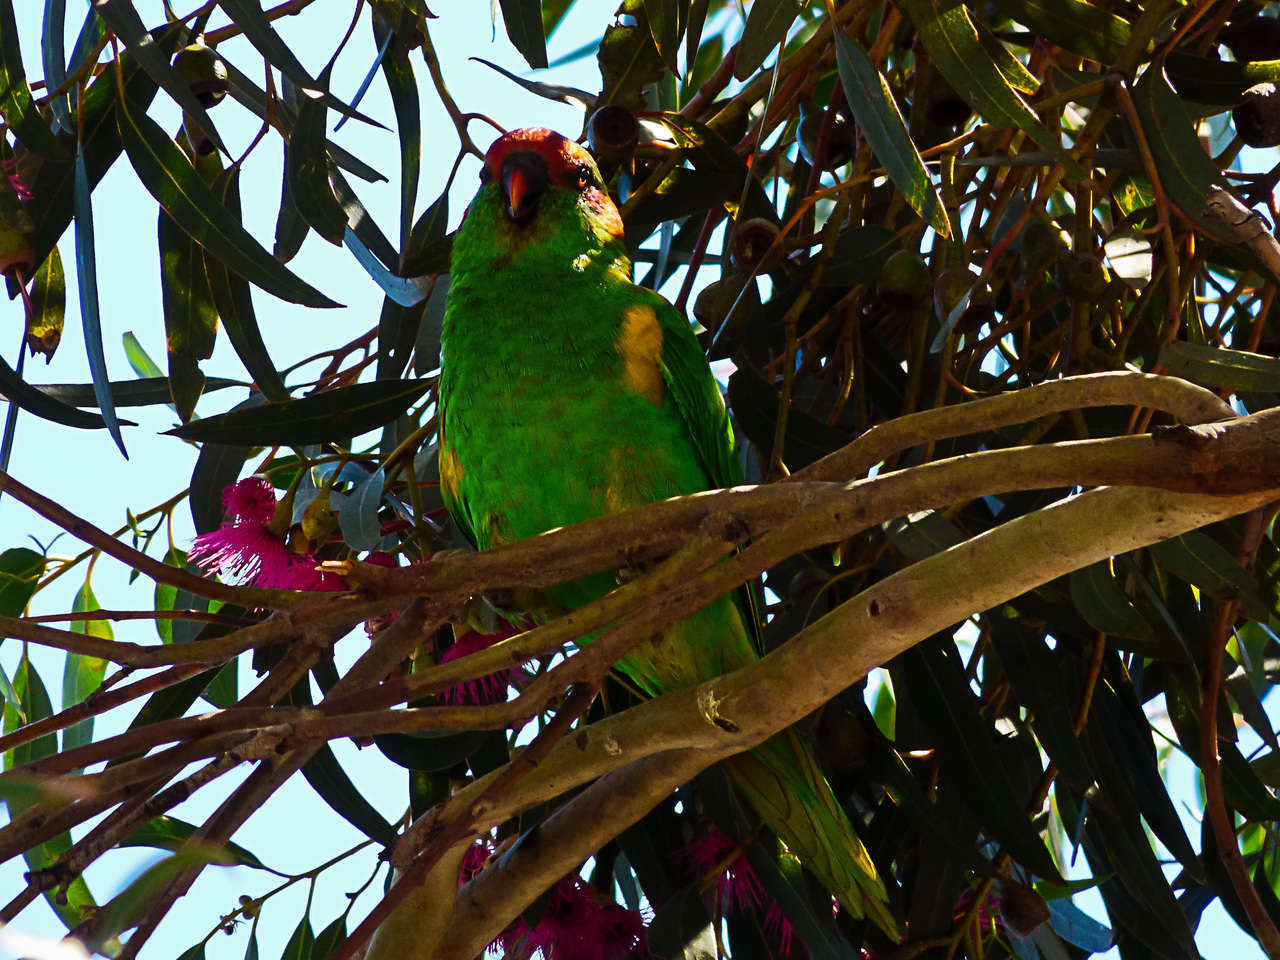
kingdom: Animalia
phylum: Chordata
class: Aves
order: Psittaciformes
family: Psittacidae
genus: Glossopsitta
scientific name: Glossopsitta concinna
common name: Musk lorikeet
